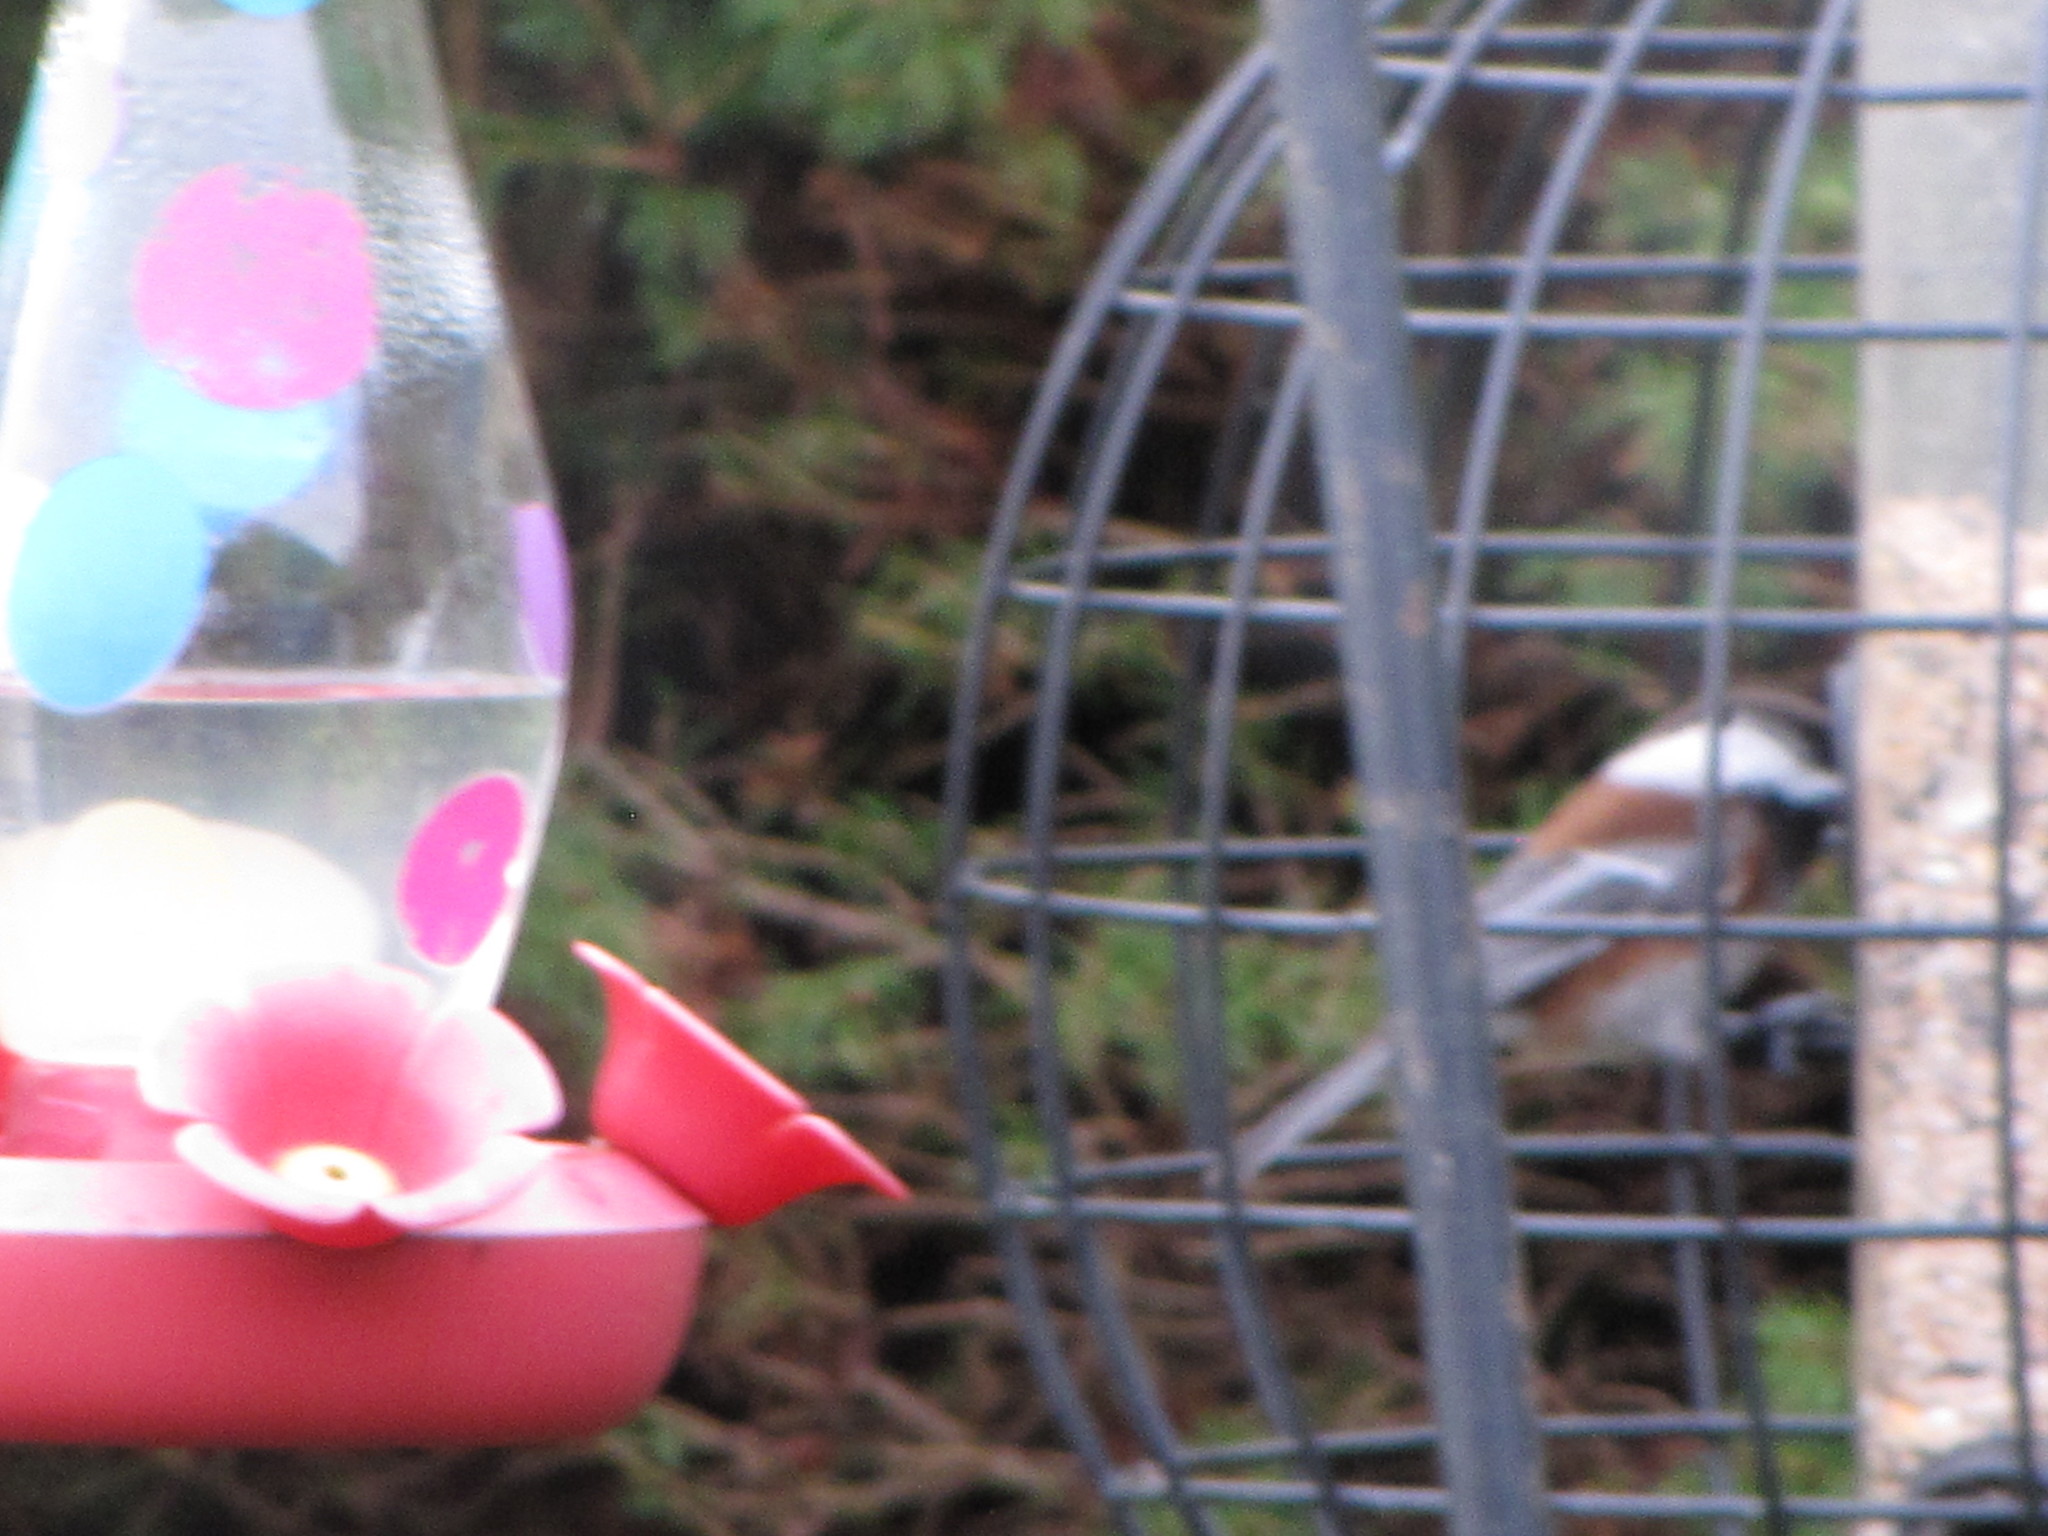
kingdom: Animalia
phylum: Chordata
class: Aves
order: Passeriformes
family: Paridae
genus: Poecile
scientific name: Poecile rufescens
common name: Chestnut-backed chickadee
